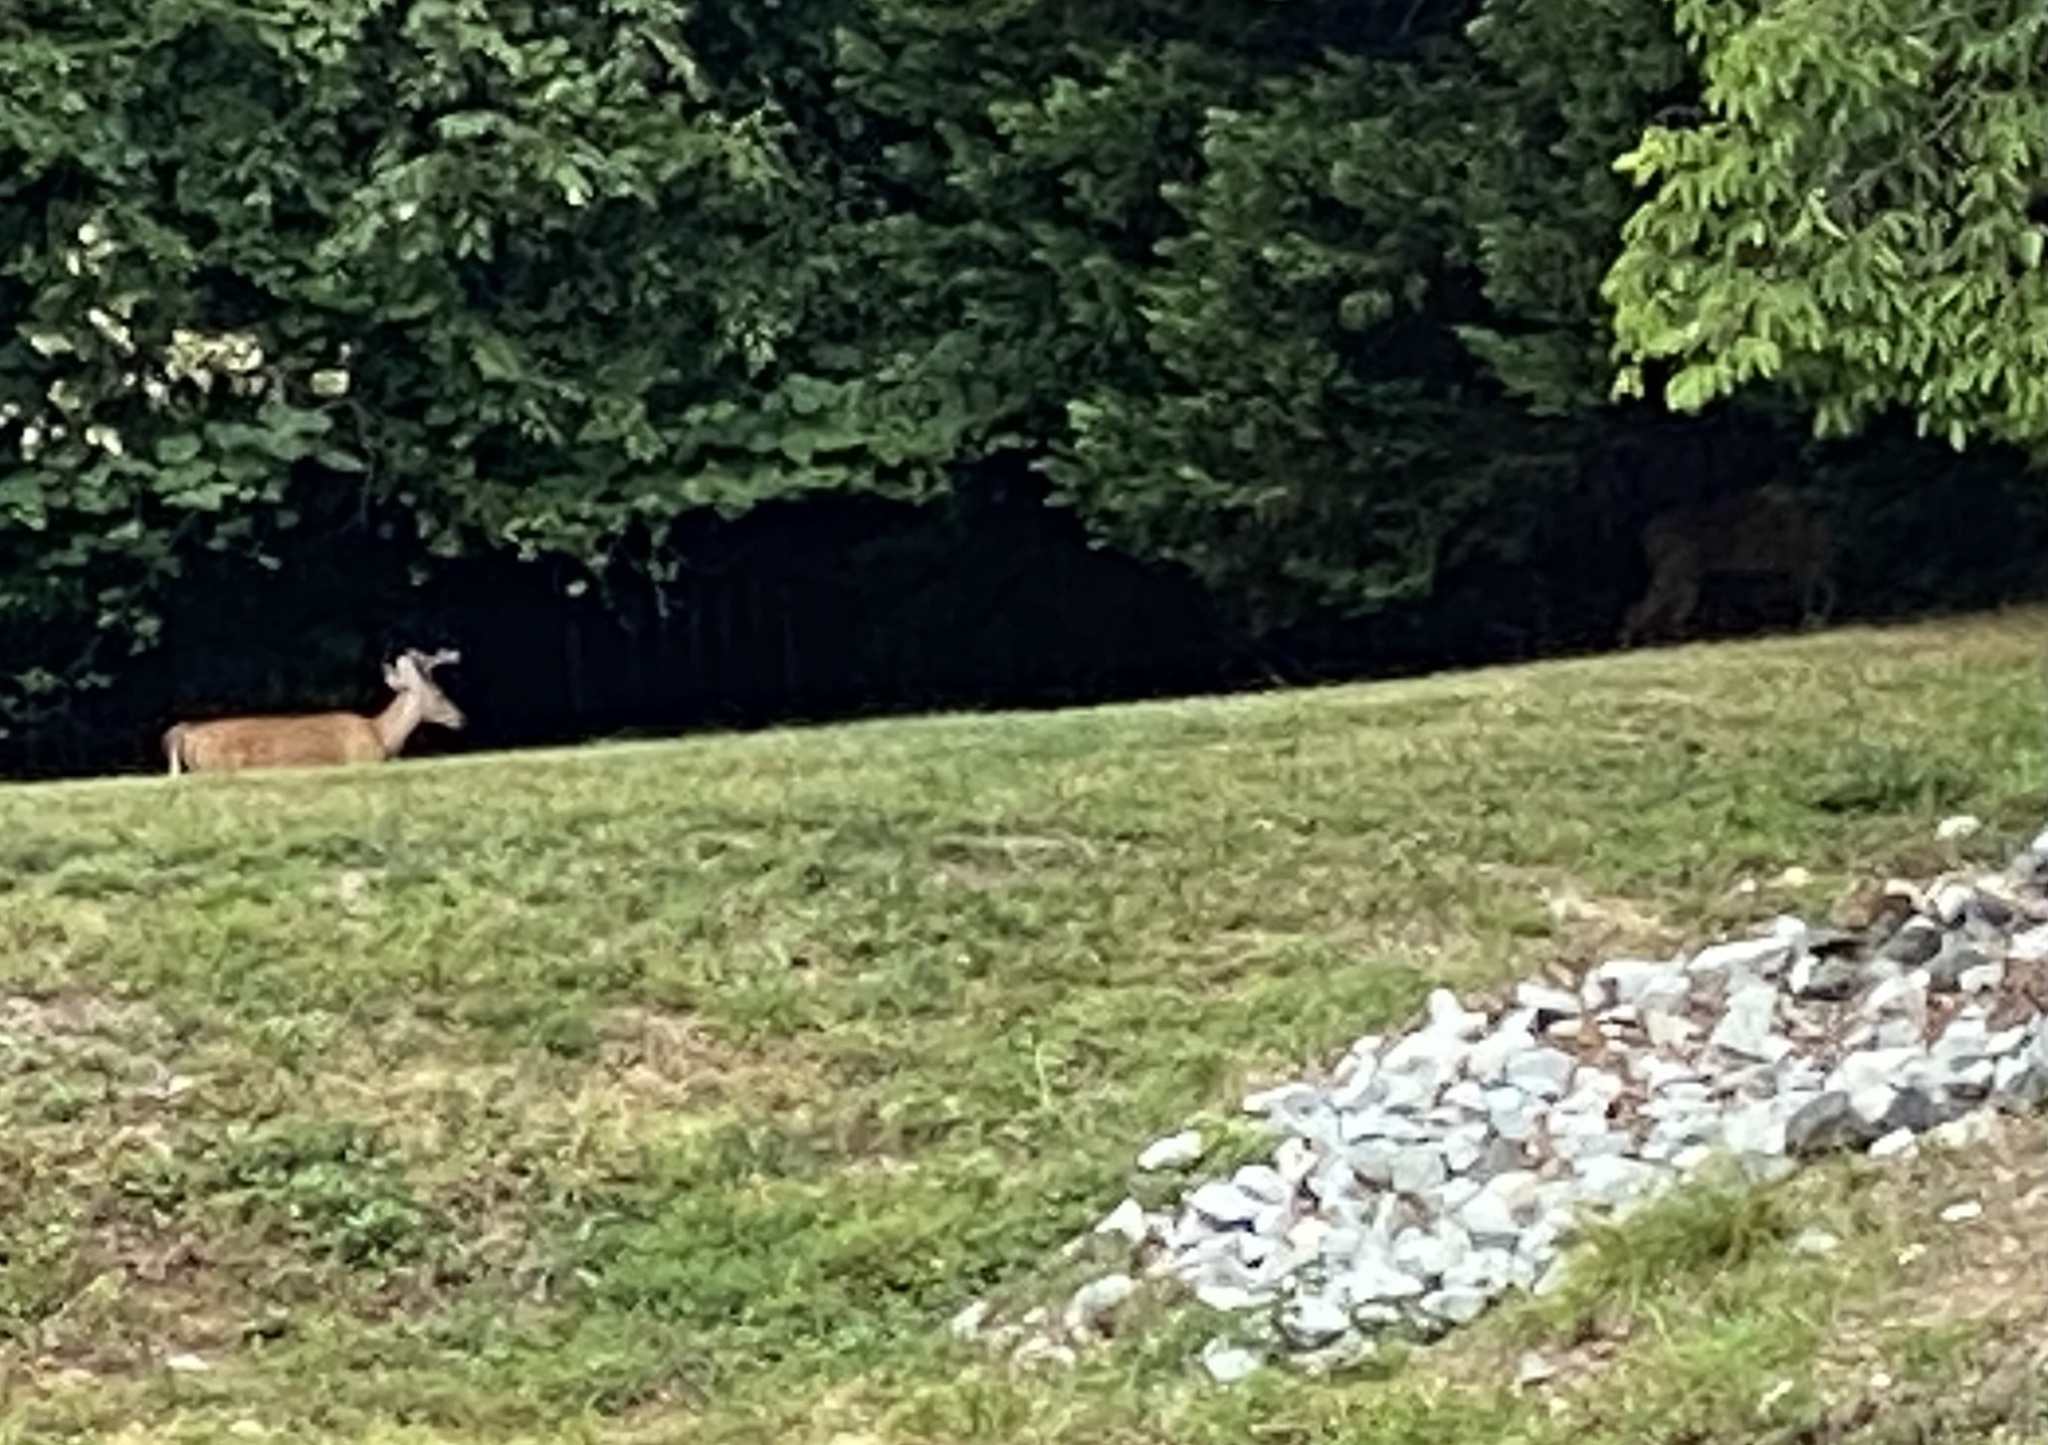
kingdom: Animalia
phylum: Chordata
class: Mammalia
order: Artiodactyla
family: Cervidae
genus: Odocoileus
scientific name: Odocoileus virginianus
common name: White-tailed deer
